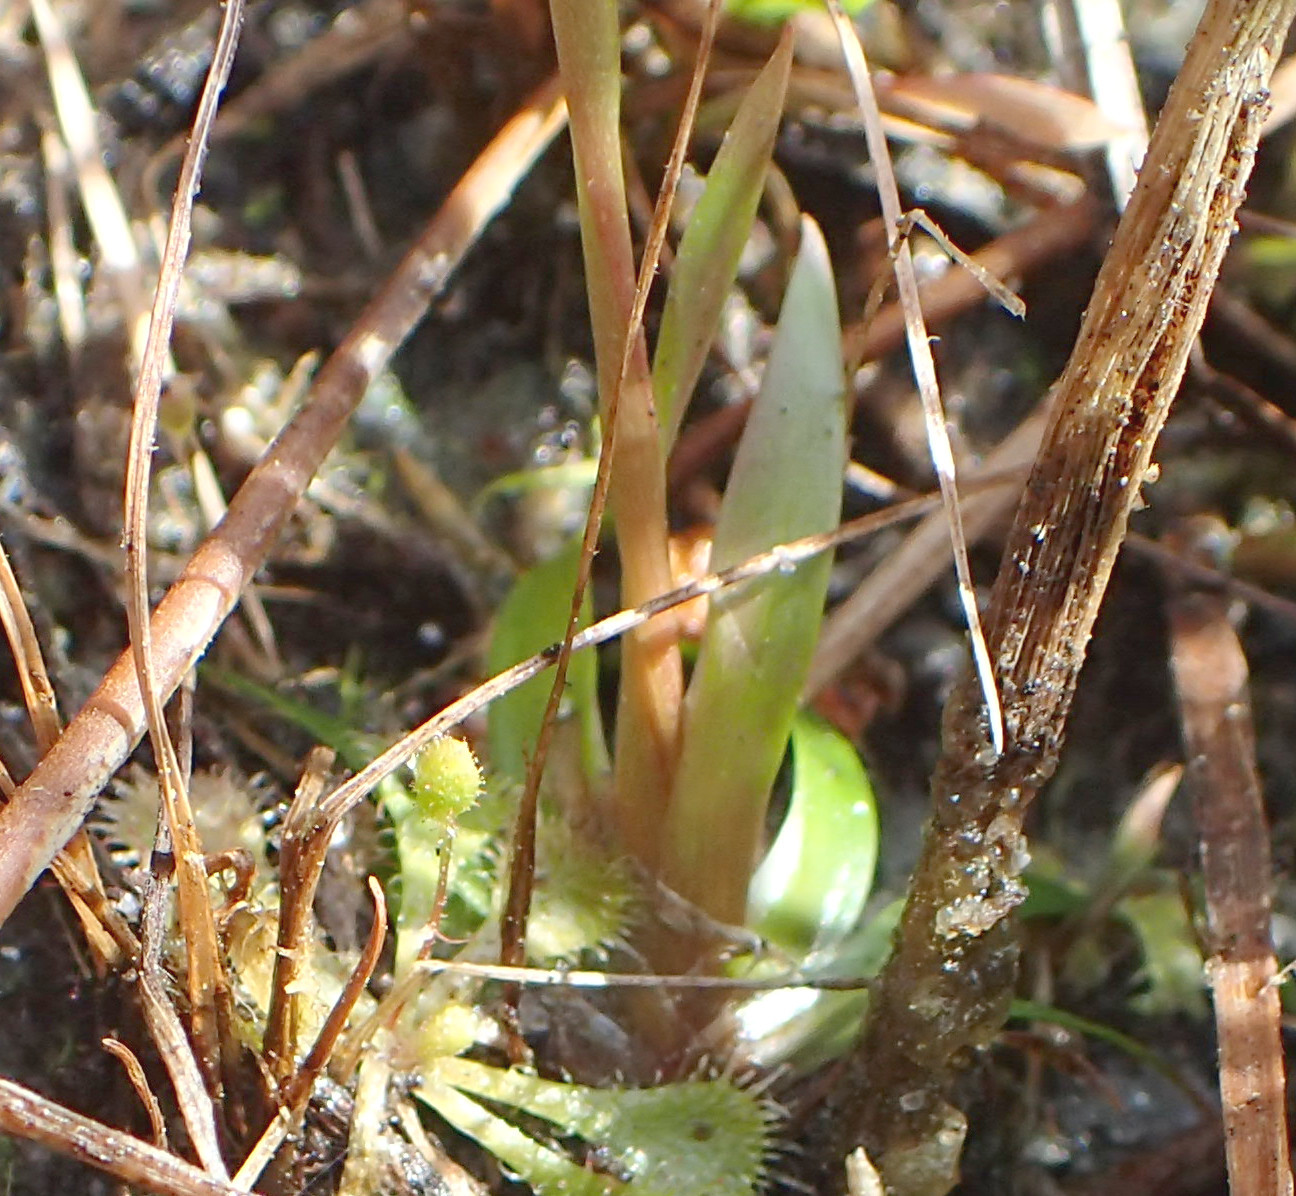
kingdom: Plantae
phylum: Tracheophyta
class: Liliopsida
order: Poales
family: Xyridaceae
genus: Xyris
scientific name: Xyris flabelliformis
